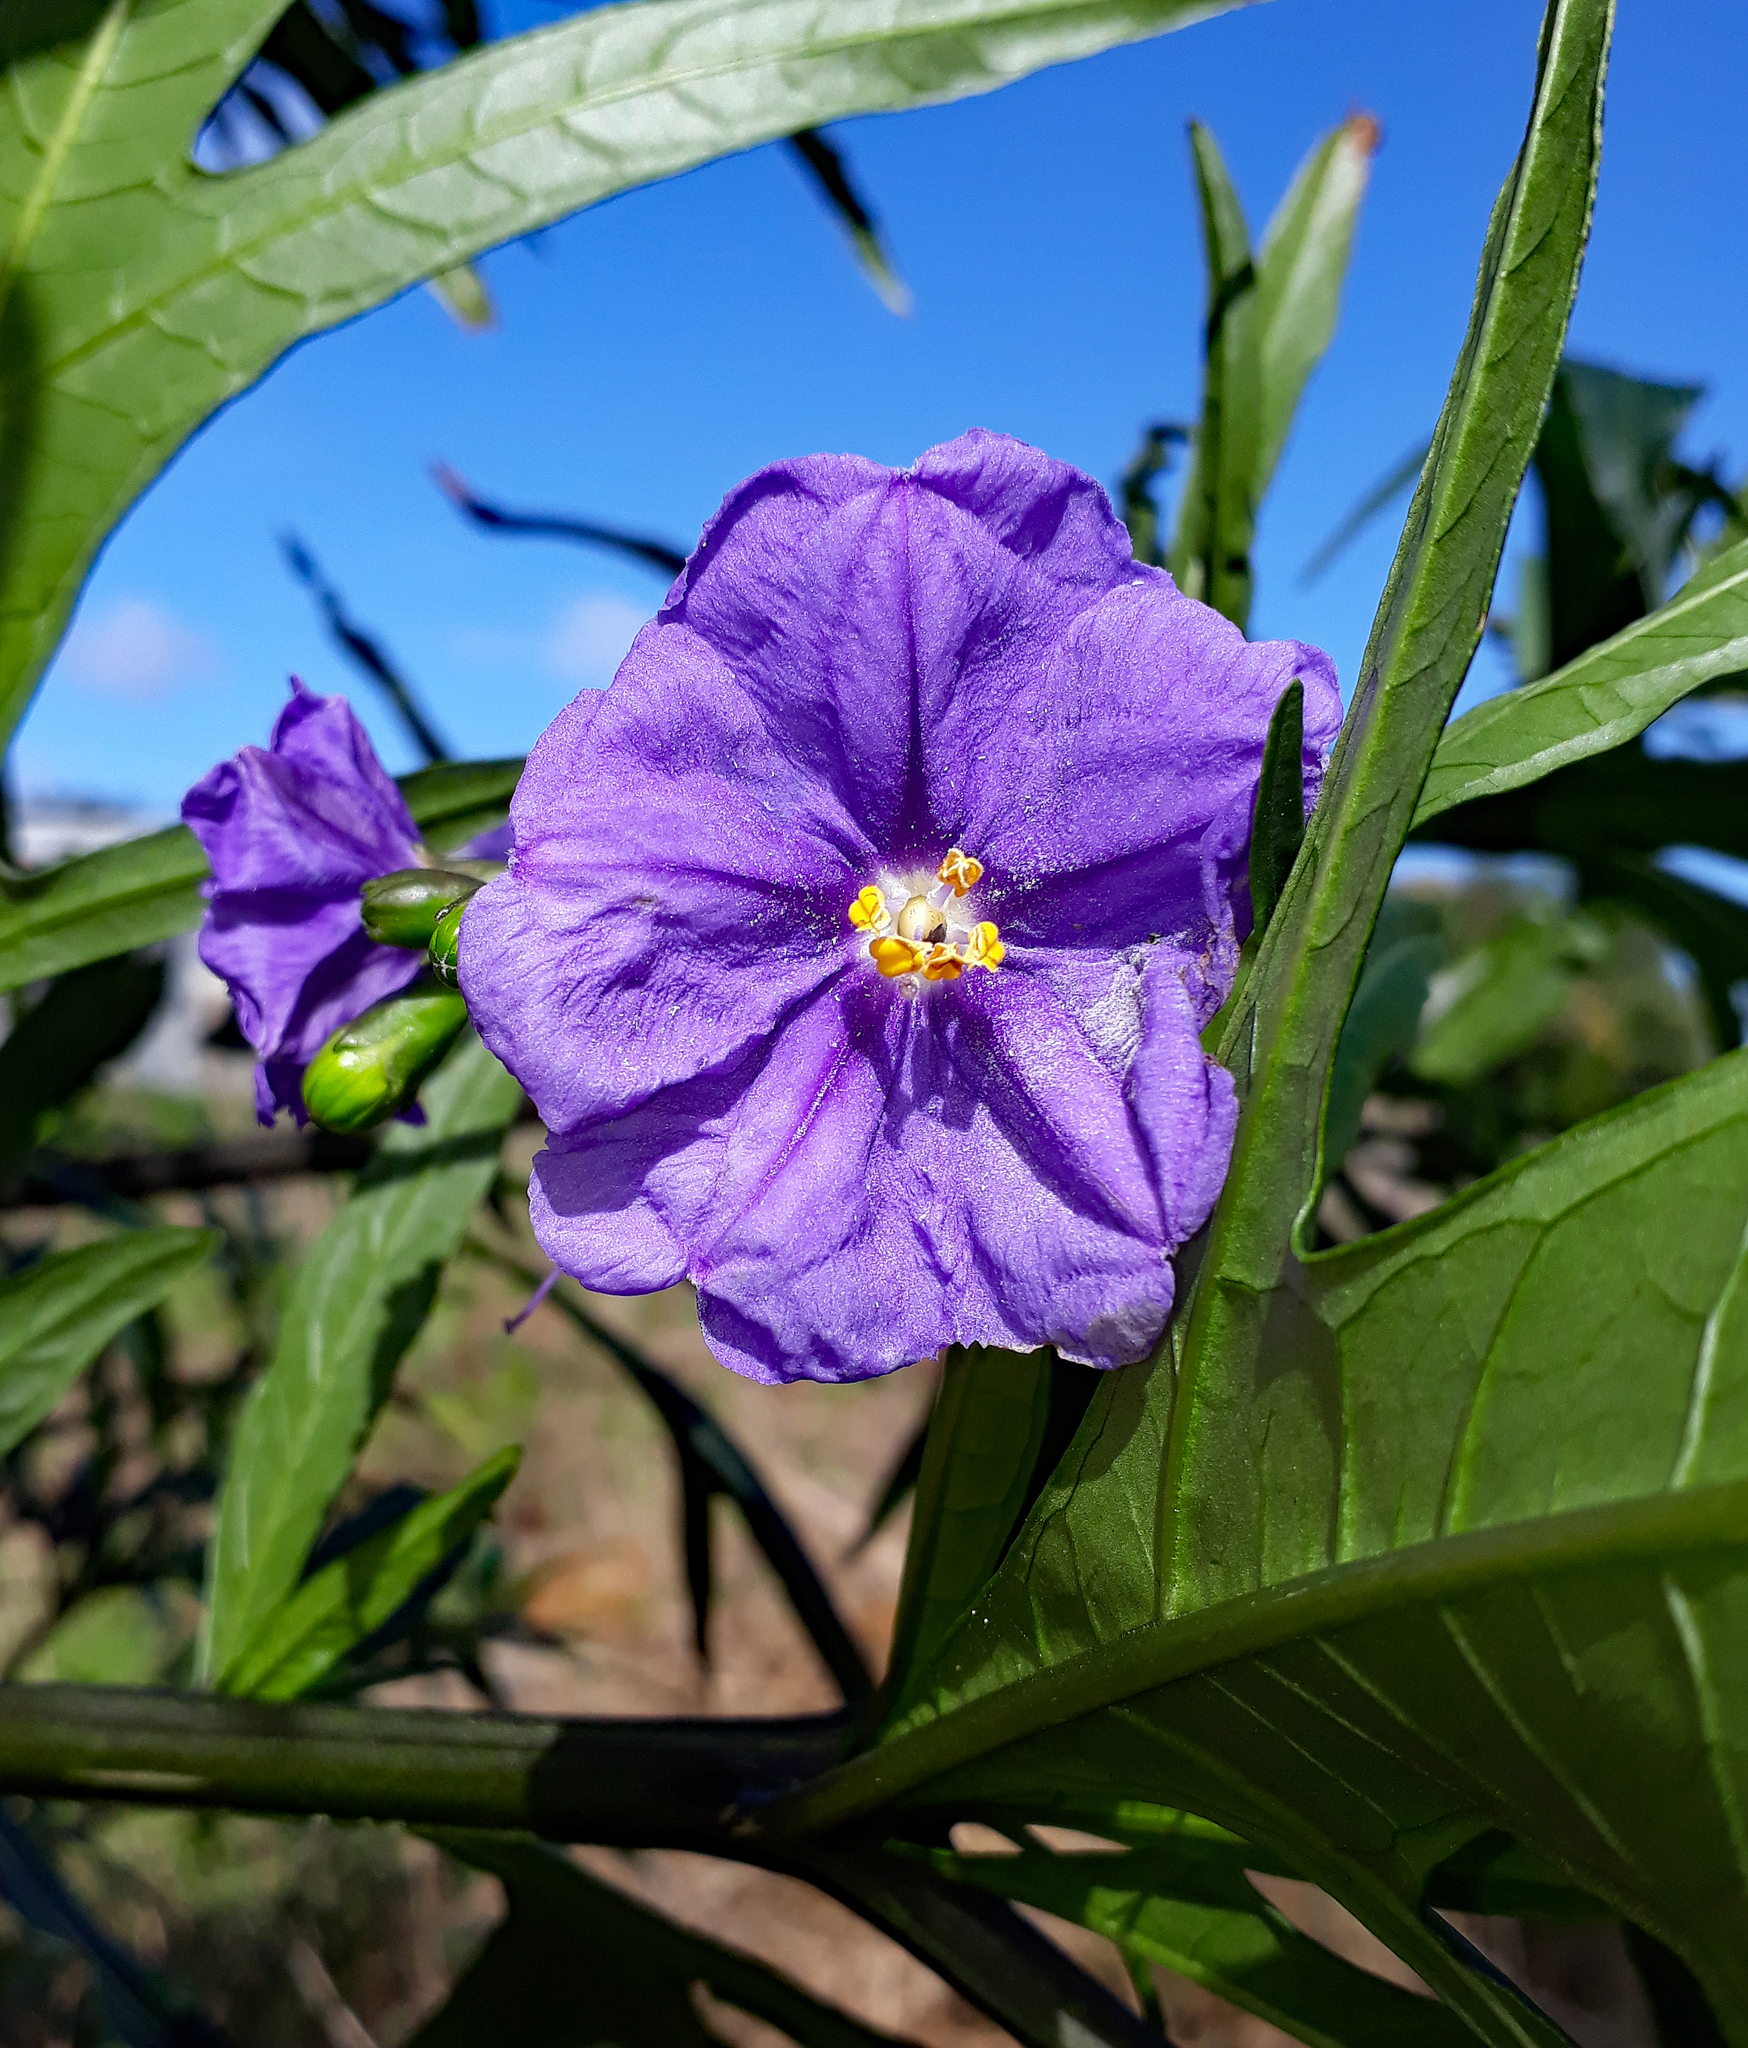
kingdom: Plantae
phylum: Tracheophyta
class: Magnoliopsida
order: Solanales
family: Solanaceae
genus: Solanum
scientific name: Solanum laciniatum
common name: Kangaroo-apple
